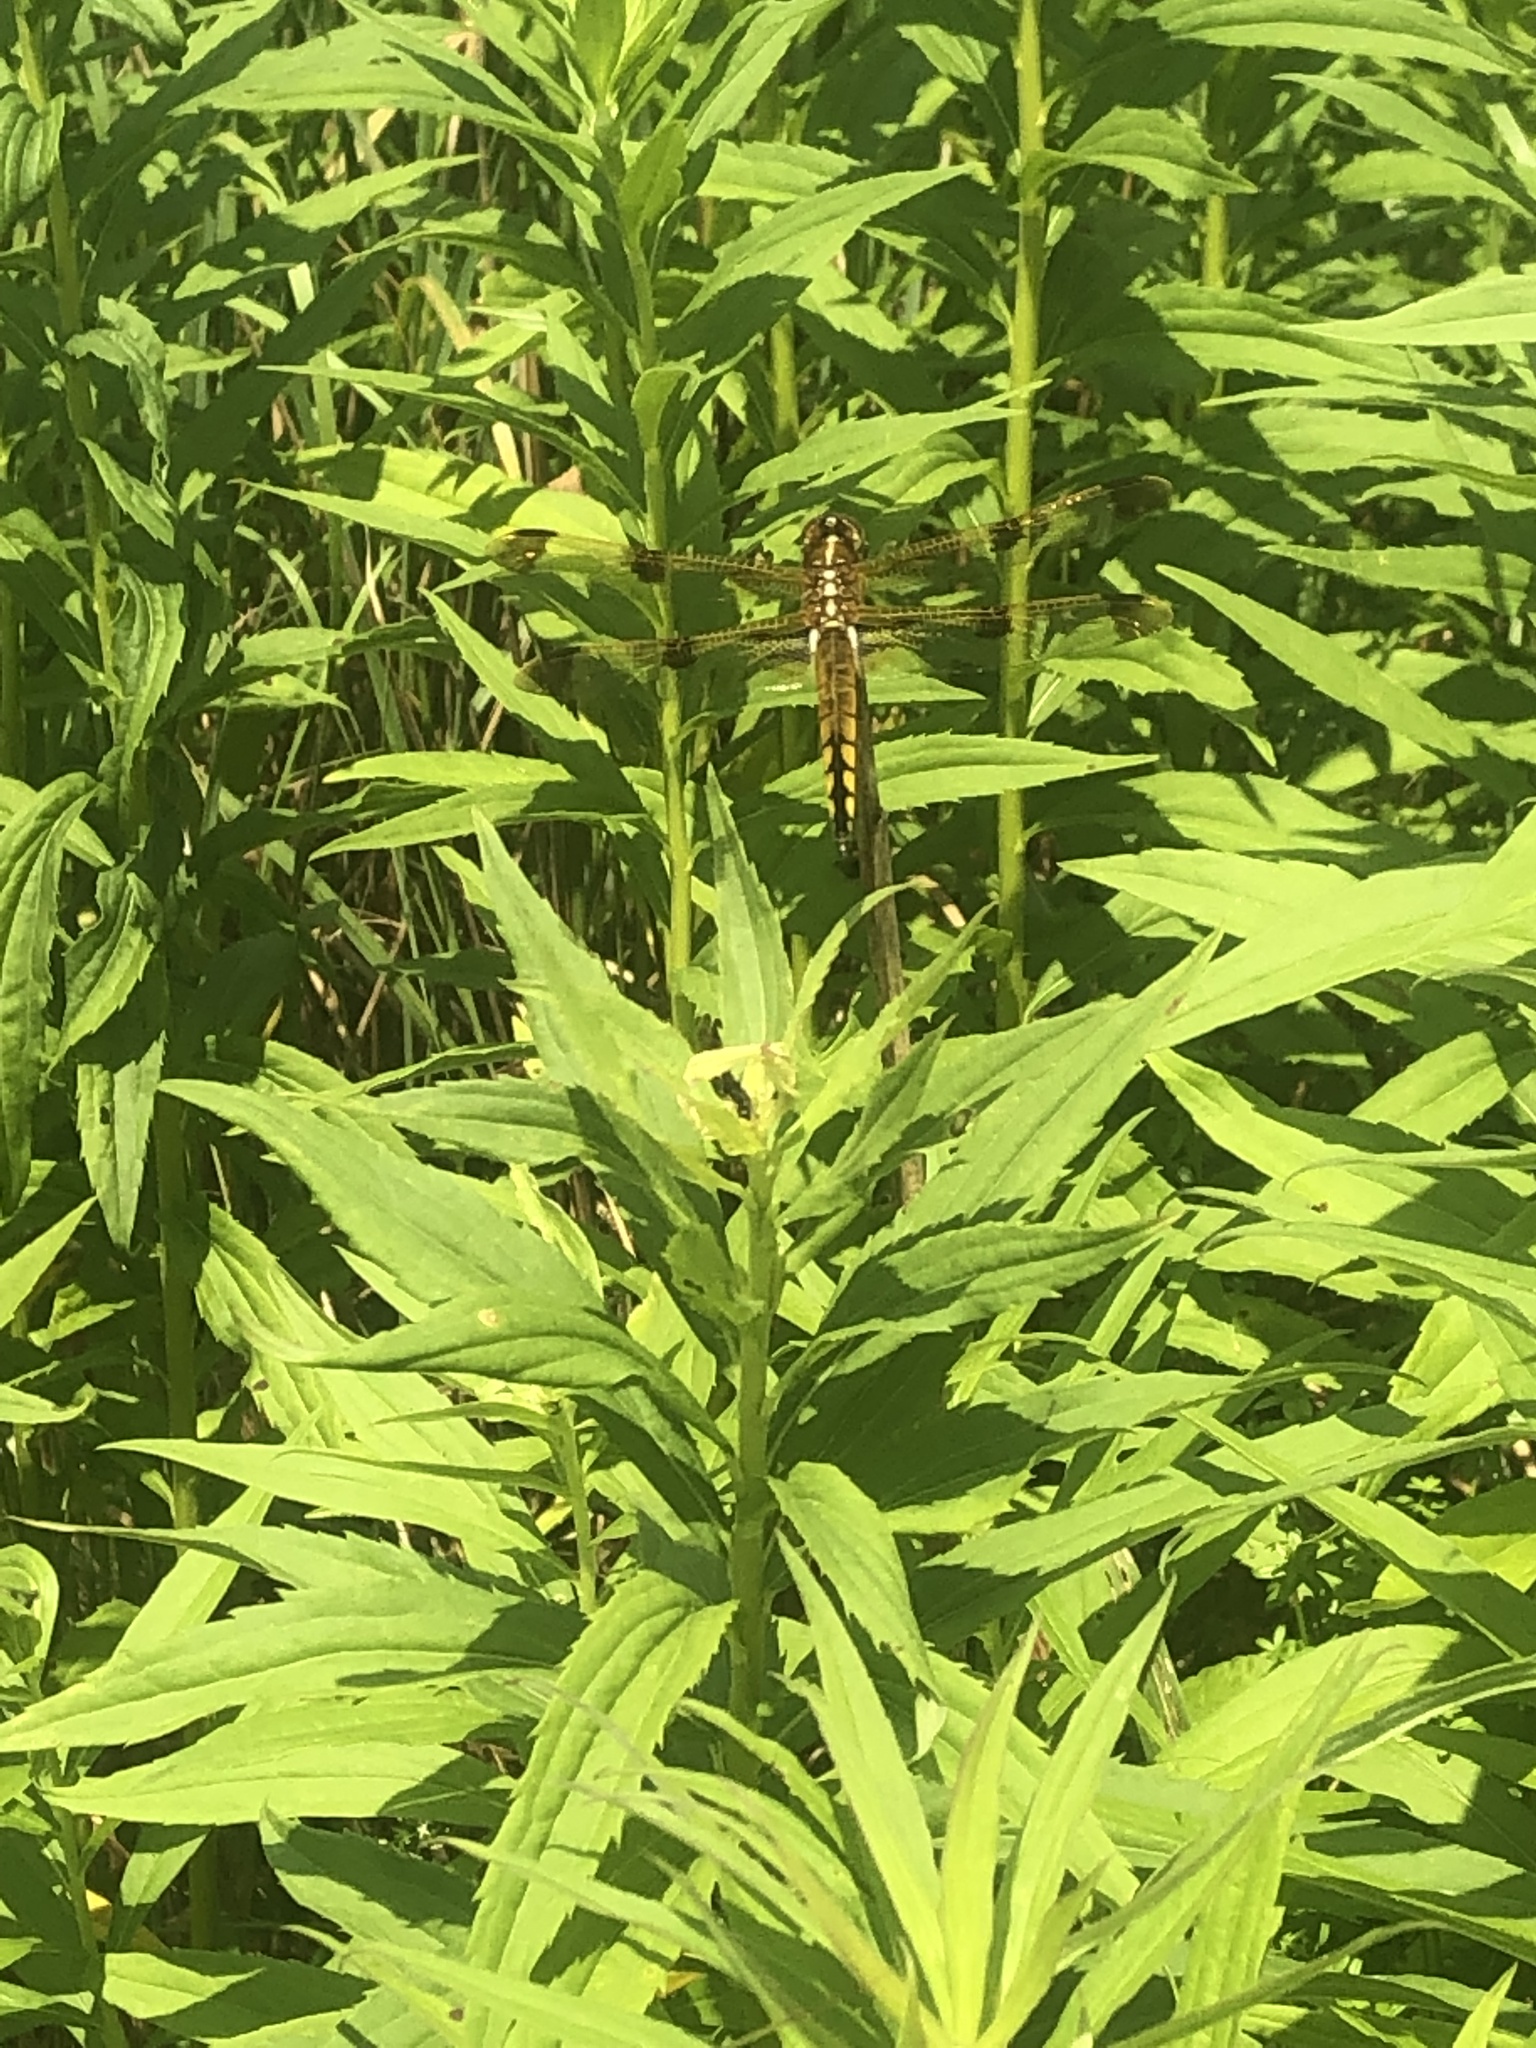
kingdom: Animalia
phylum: Arthropoda
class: Insecta
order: Odonata
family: Libellulidae
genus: Libellula
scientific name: Libellula semifasciata
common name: Painted skimmer
